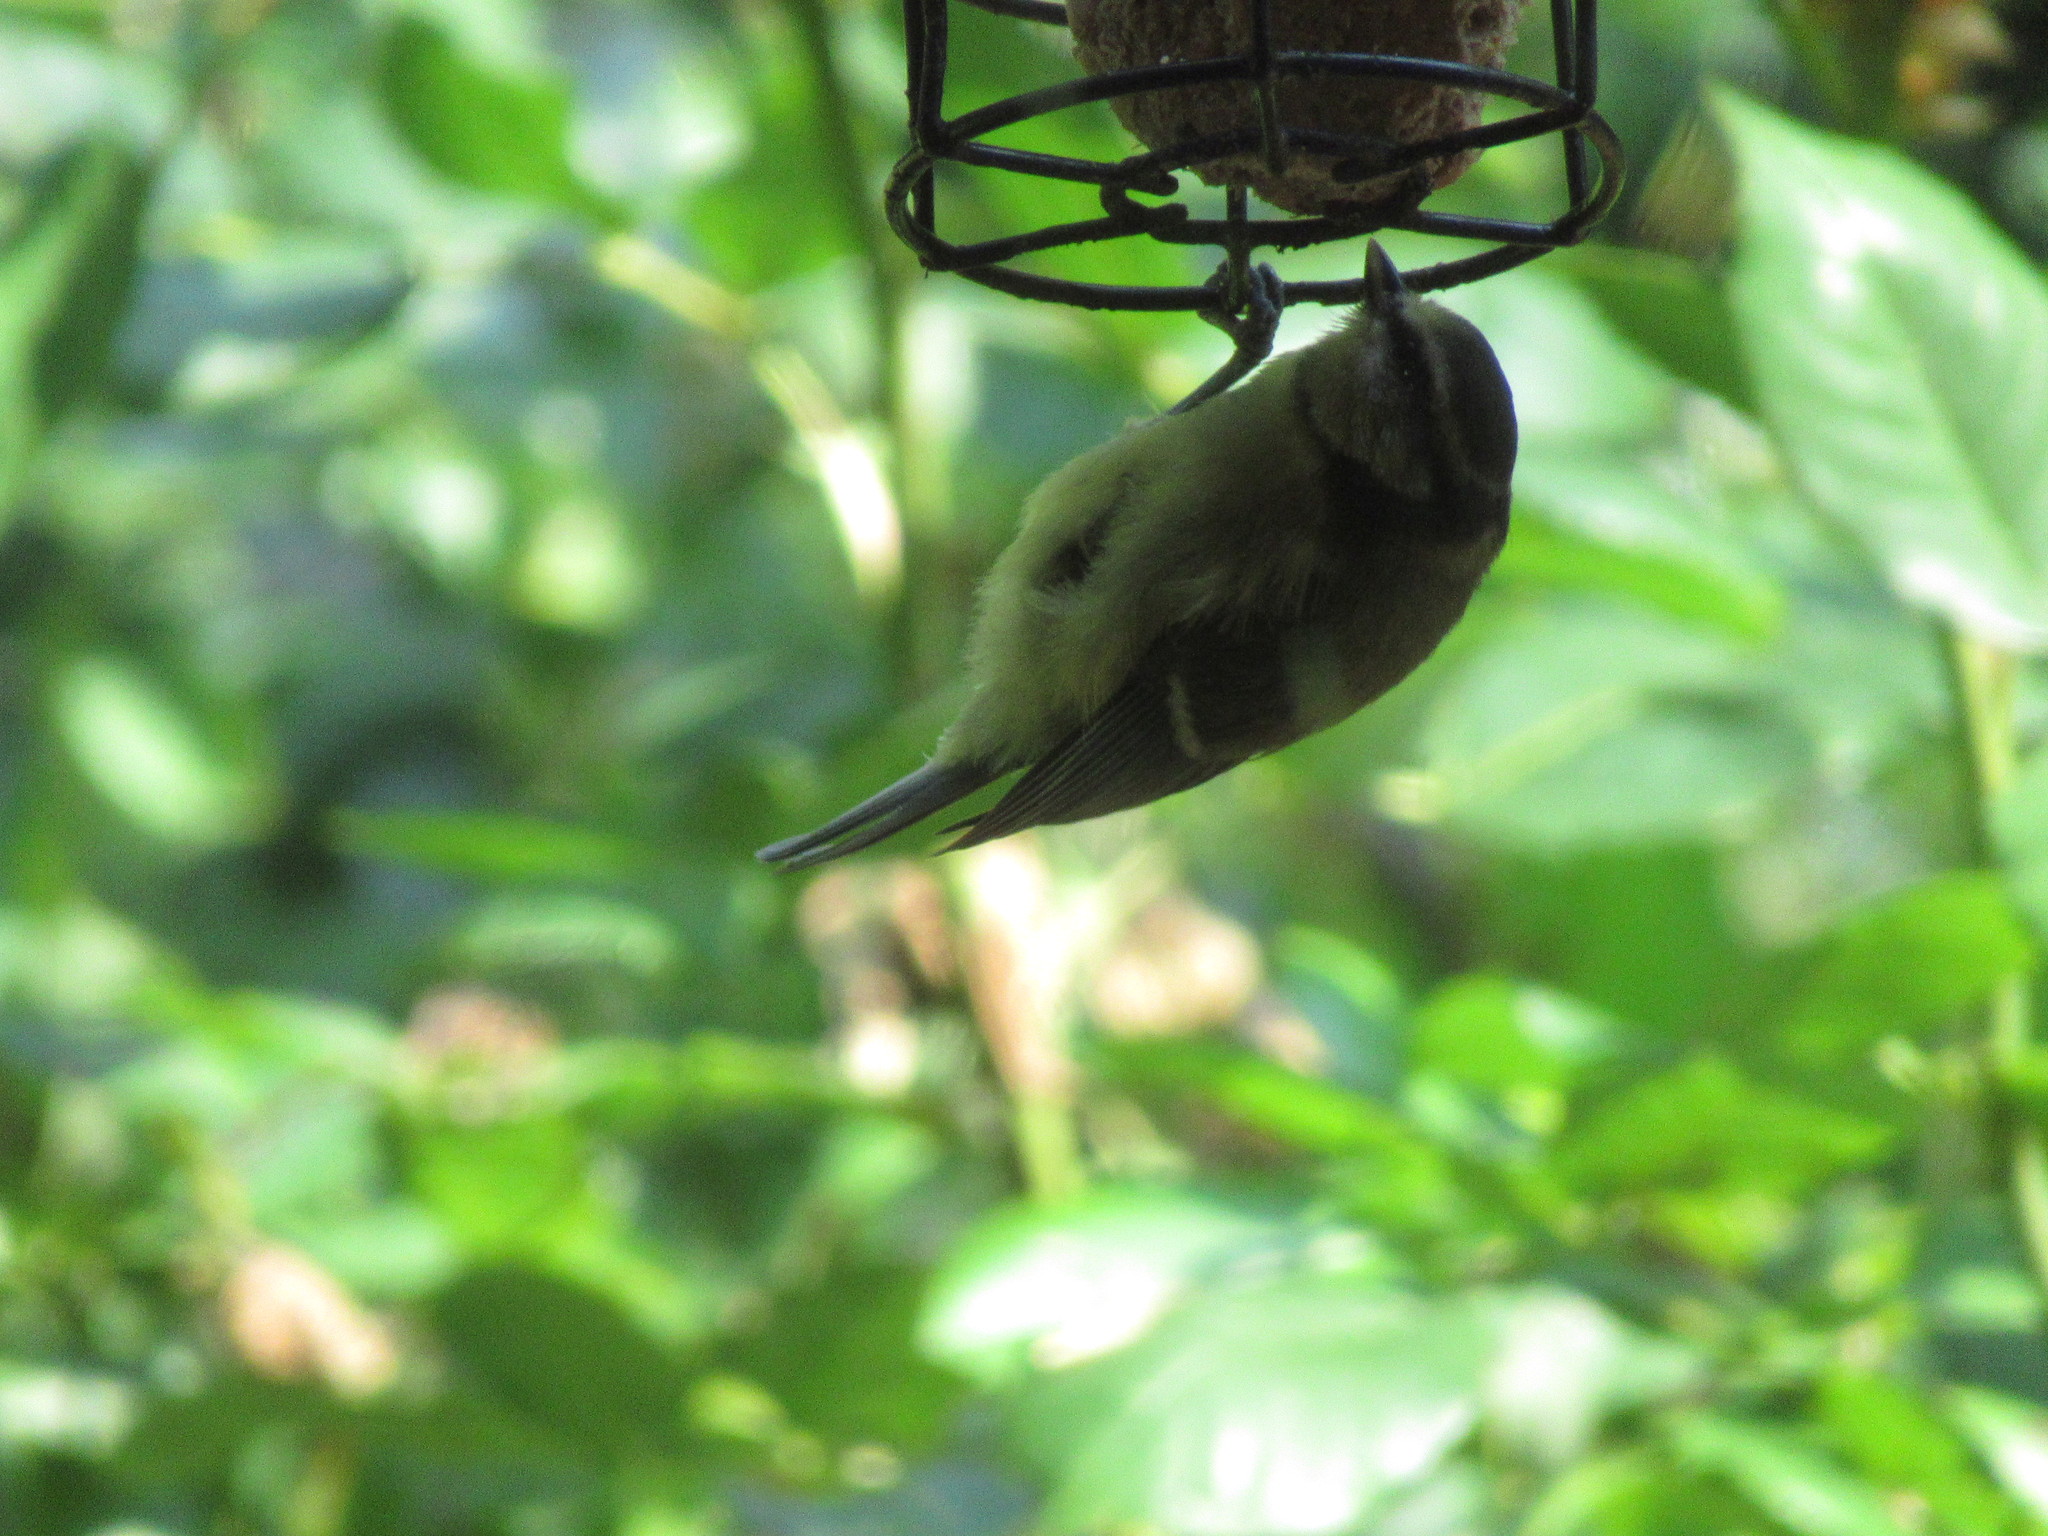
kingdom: Animalia
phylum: Chordata
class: Aves
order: Passeriformes
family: Paridae
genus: Cyanistes
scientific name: Cyanistes caeruleus
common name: Eurasian blue tit
